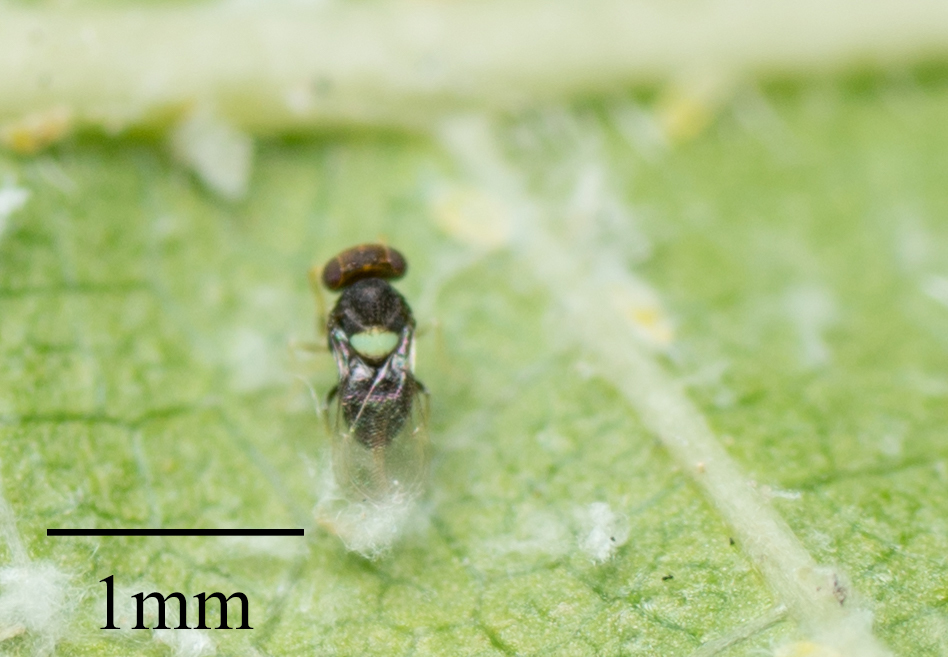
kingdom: Animalia
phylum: Arthropoda
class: Insecta
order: Hymenoptera
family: Aphelinidae
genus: Encarsiella
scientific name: Encarsiella noyesi
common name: Parasitoid wasp
